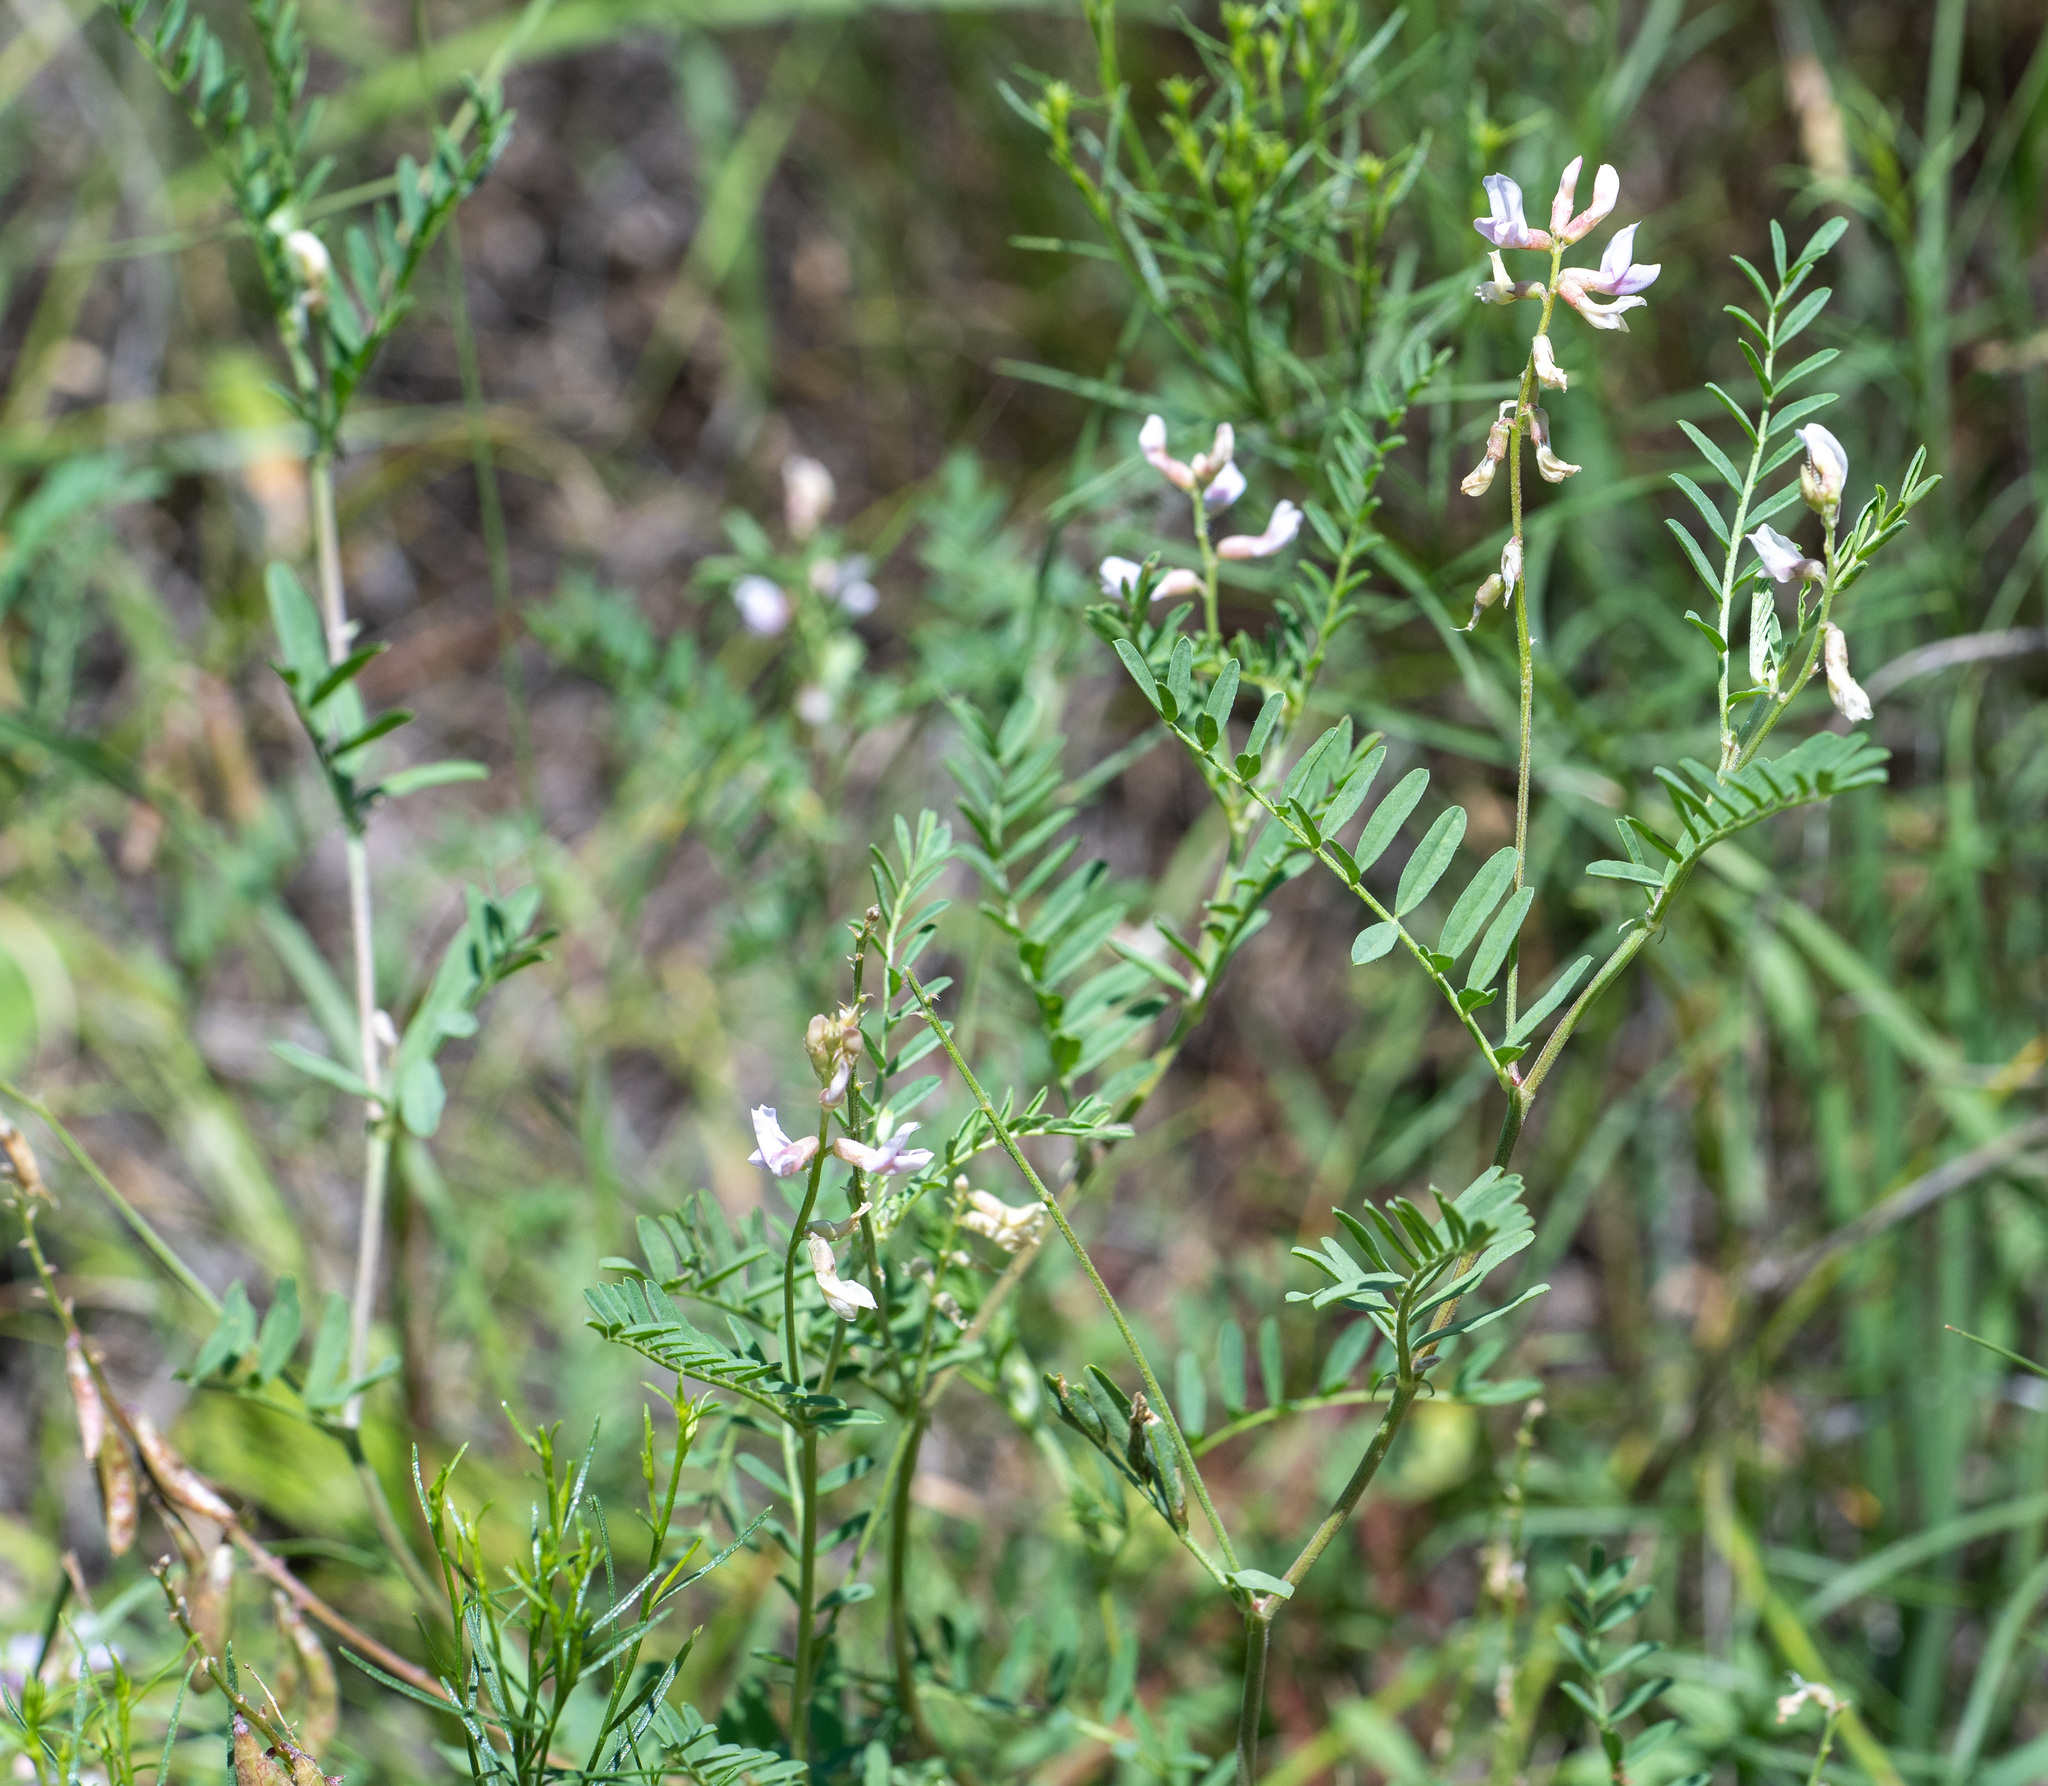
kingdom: Plantae
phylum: Tracheophyta
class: Magnoliopsida
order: Fabales
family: Fabaceae
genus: Astragalus
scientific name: Astragalus flexuosus
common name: Pliant milk-vetch
